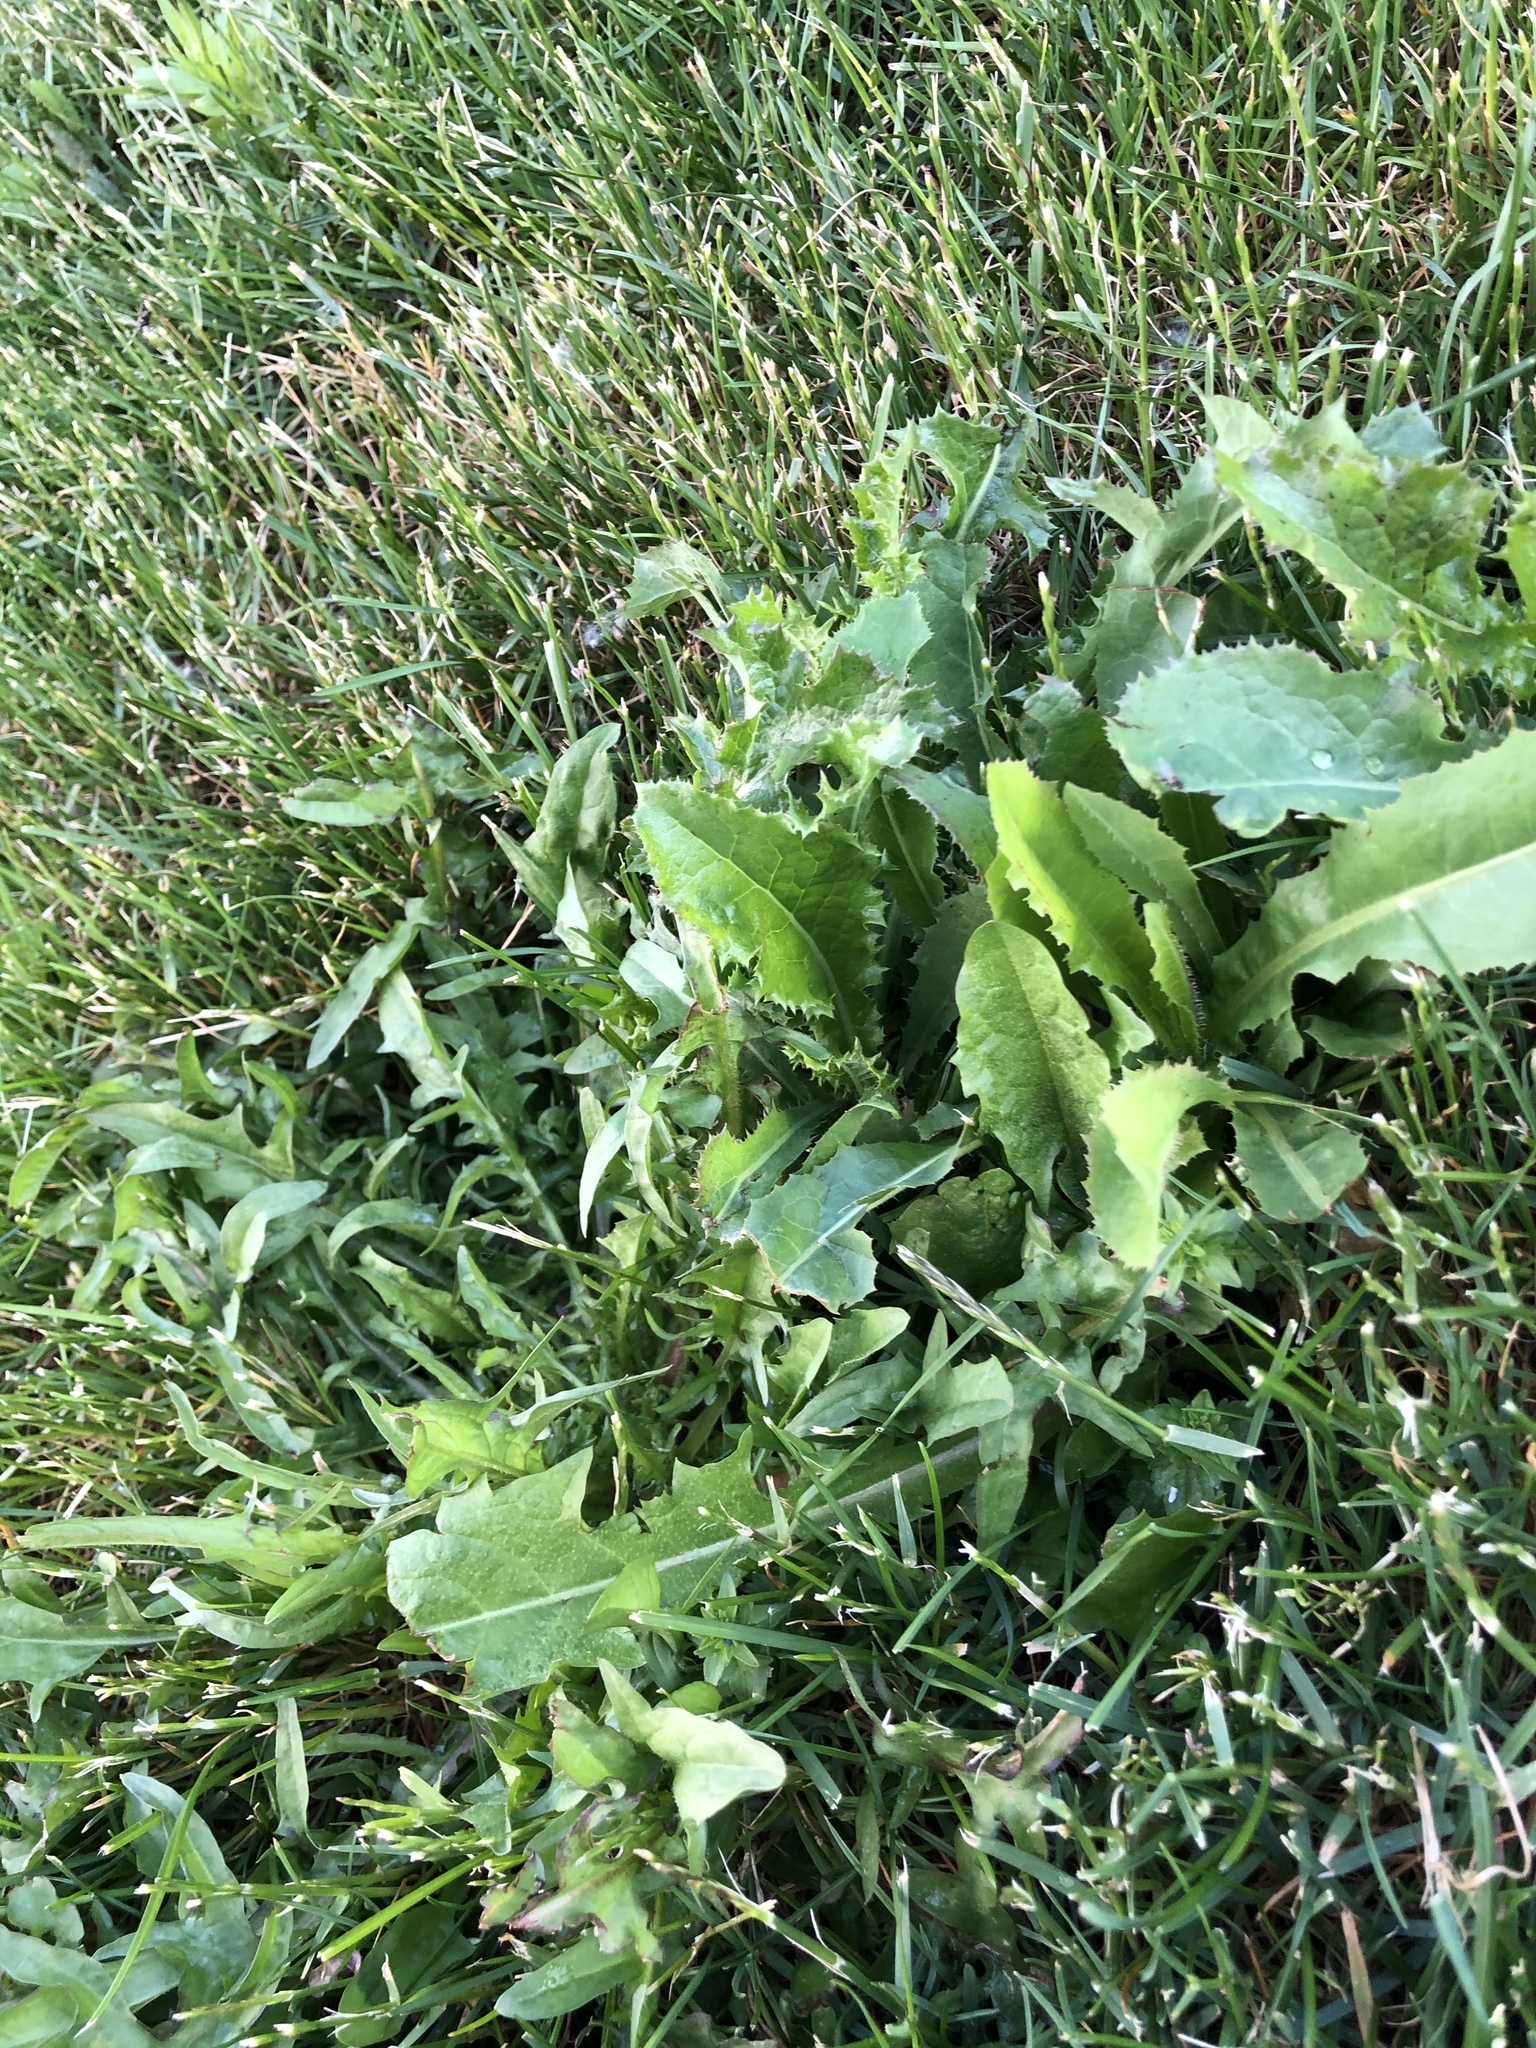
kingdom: Plantae
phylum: Tracheophyta
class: Magnoliopsida
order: Asterales
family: Asteraceae
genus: Taraxacum
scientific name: Taraxacum officinale
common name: Common dandelion
